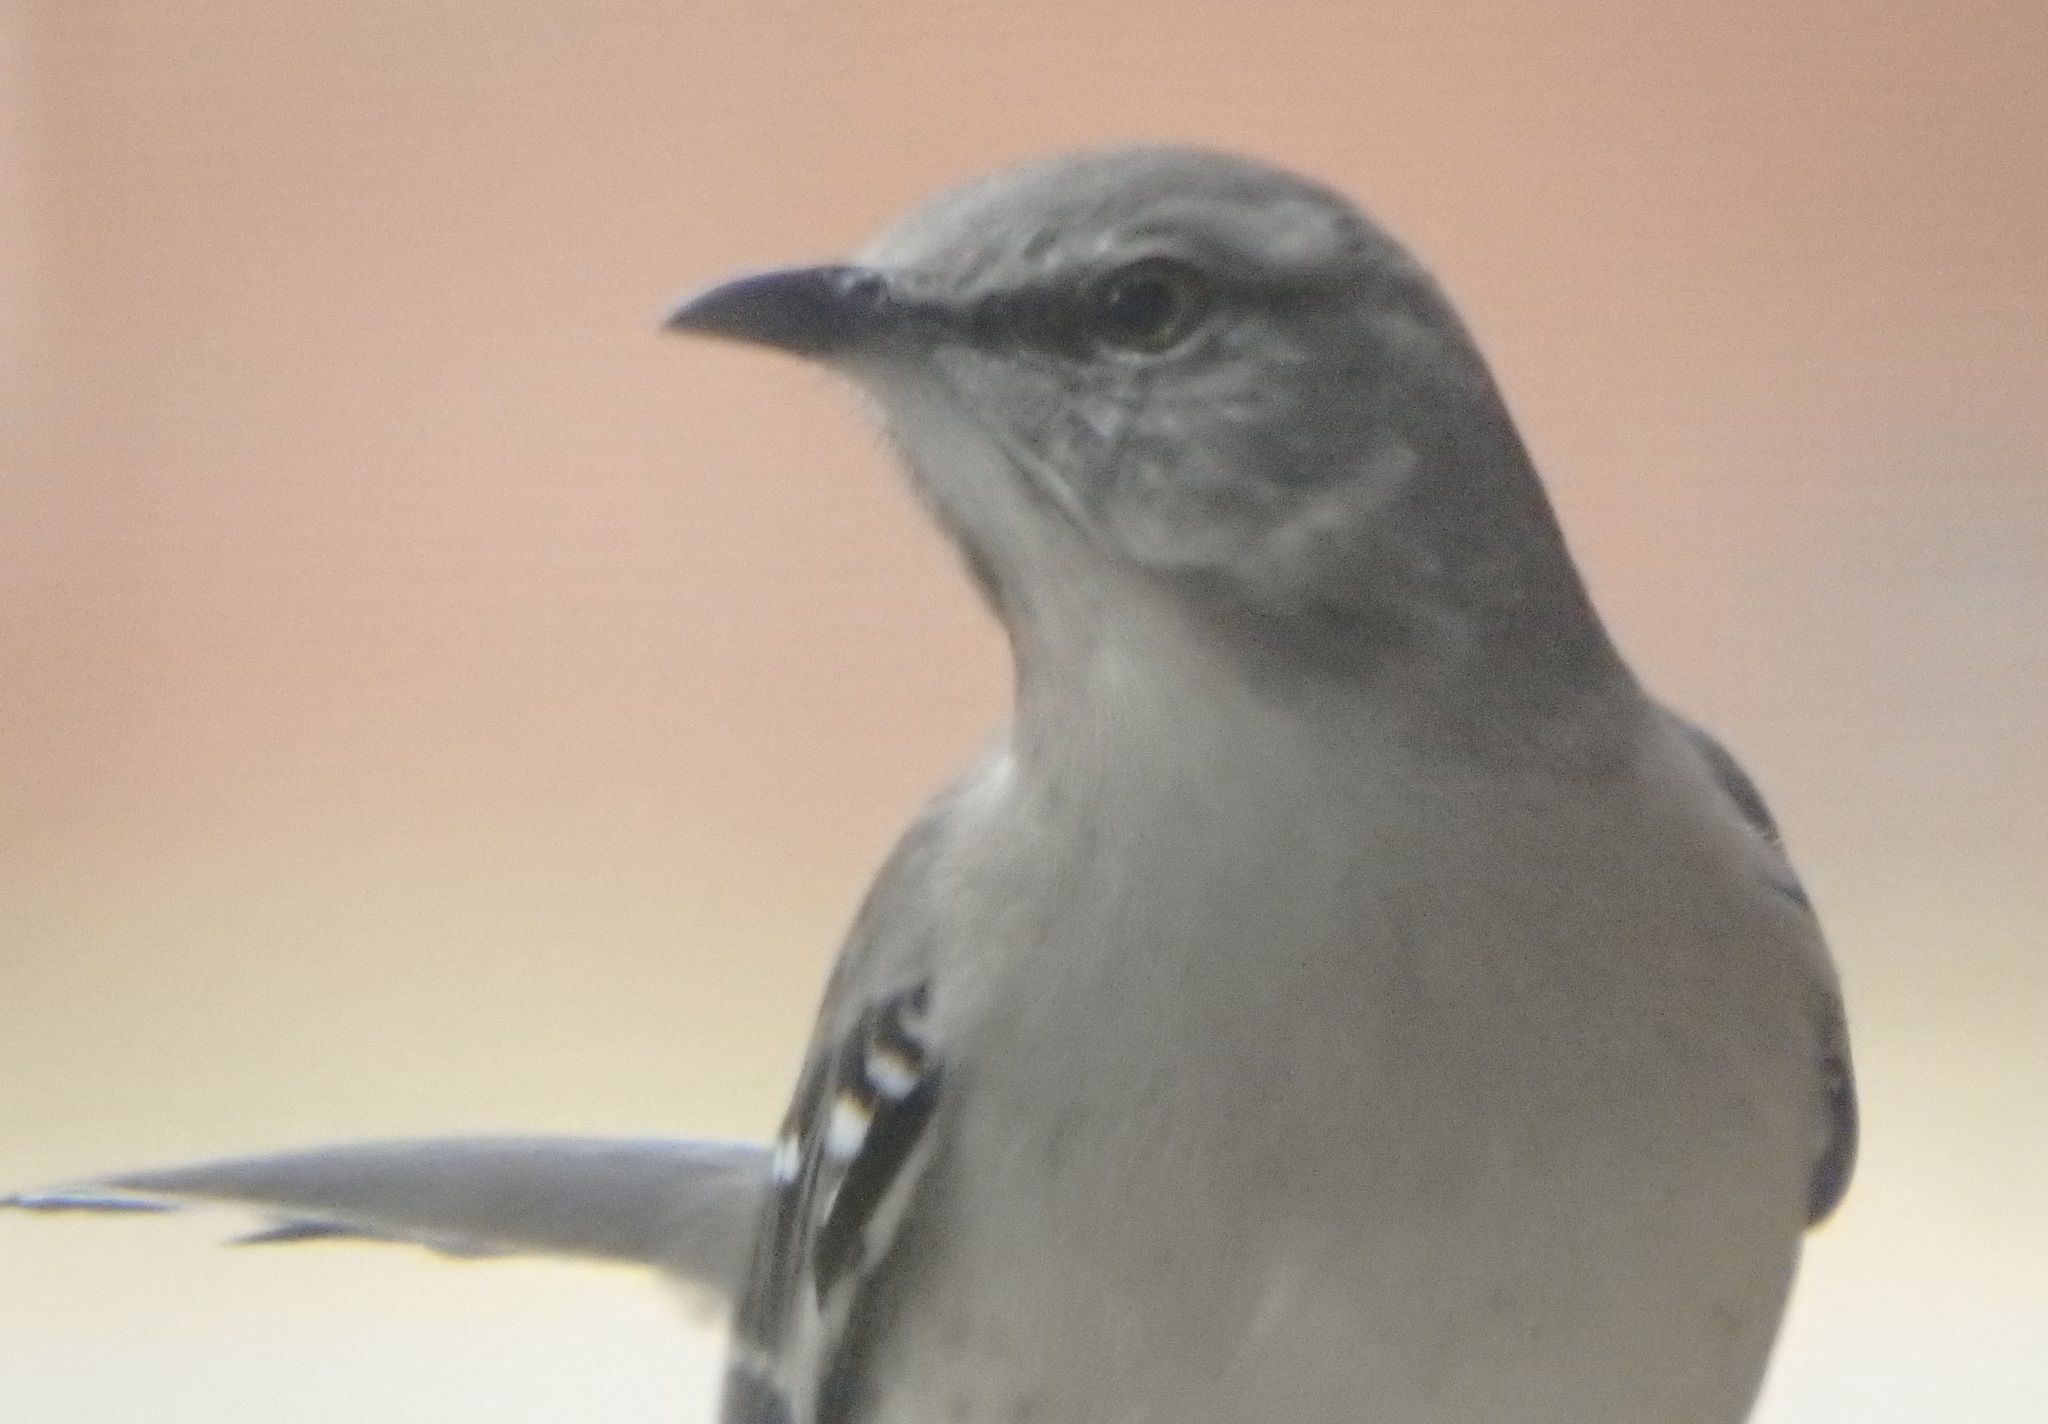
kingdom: Animalia
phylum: Chordata
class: Aves
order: Passeriformes
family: Mimidae
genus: Mimus
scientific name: Mimus polyglottos
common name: Northern mockingbird
